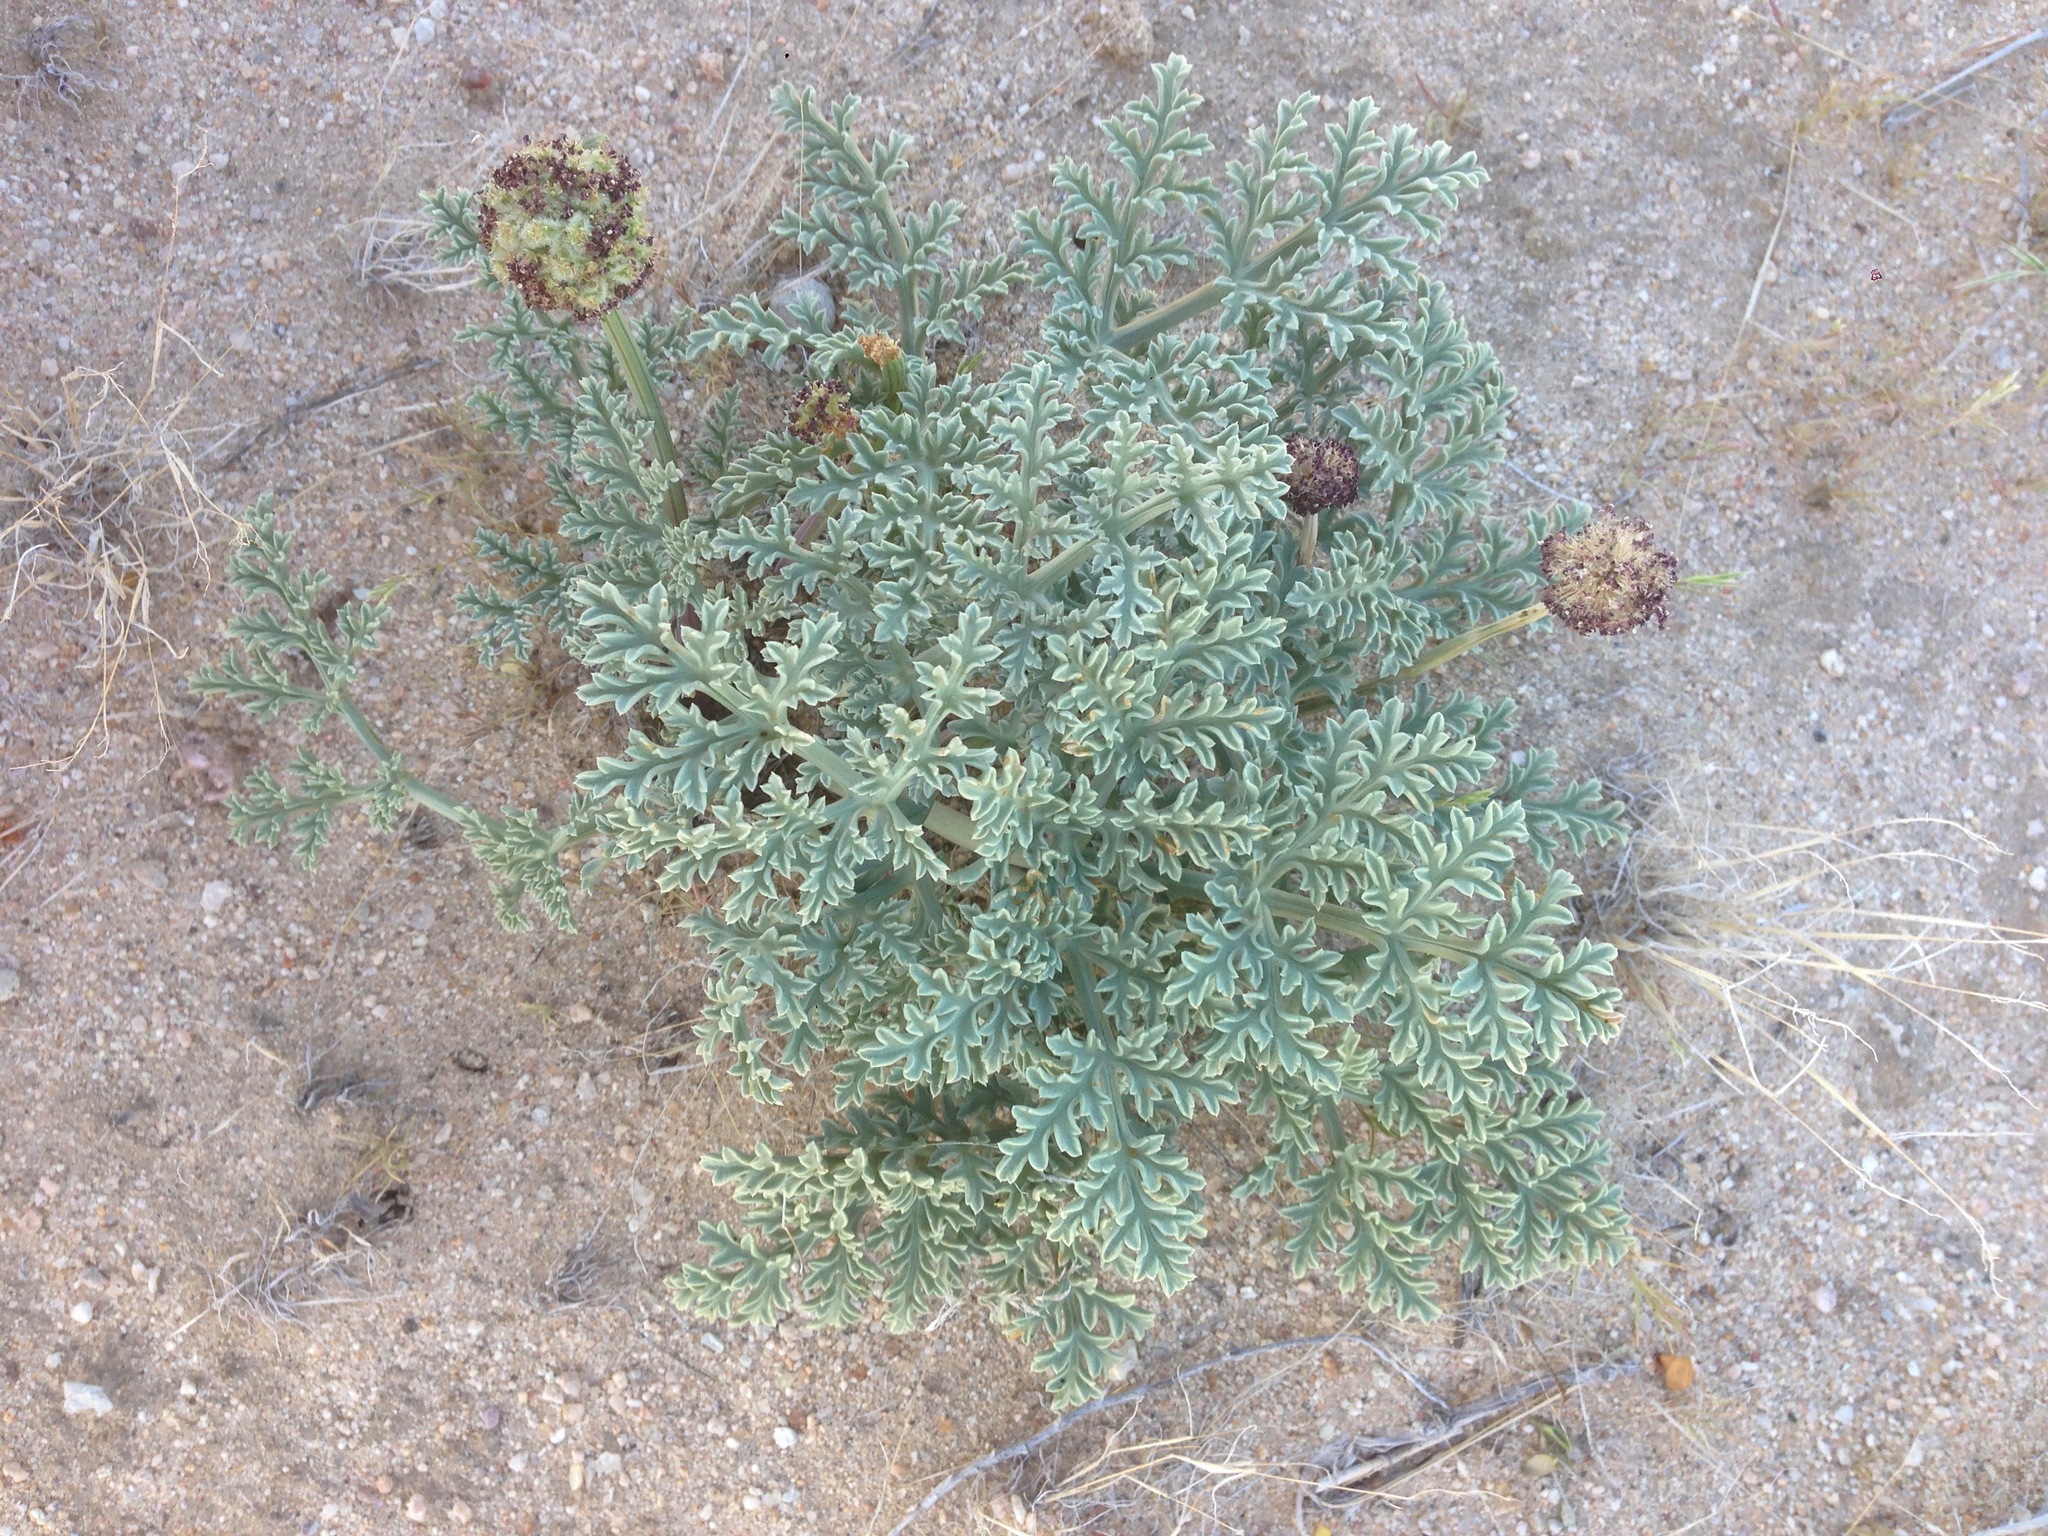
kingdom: Plantae
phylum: Tracheophyta
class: Magnoliopsida
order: Apiales
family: Apiaceae
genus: Cymopterus
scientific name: Cymopterus deserticola
